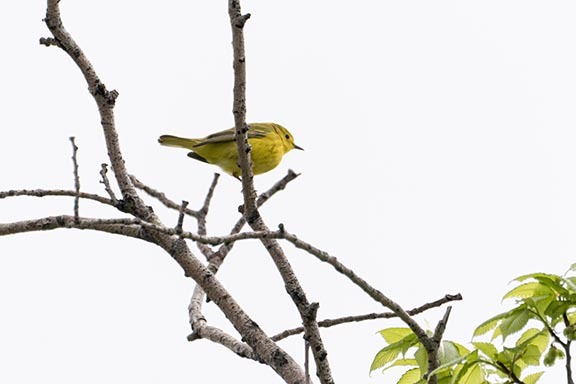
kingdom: Animalia
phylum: Chordata
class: Aves
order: Passeriformes
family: Parulidae
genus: Setophaga
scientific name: Setophaga petechia
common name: Yellow warbler
